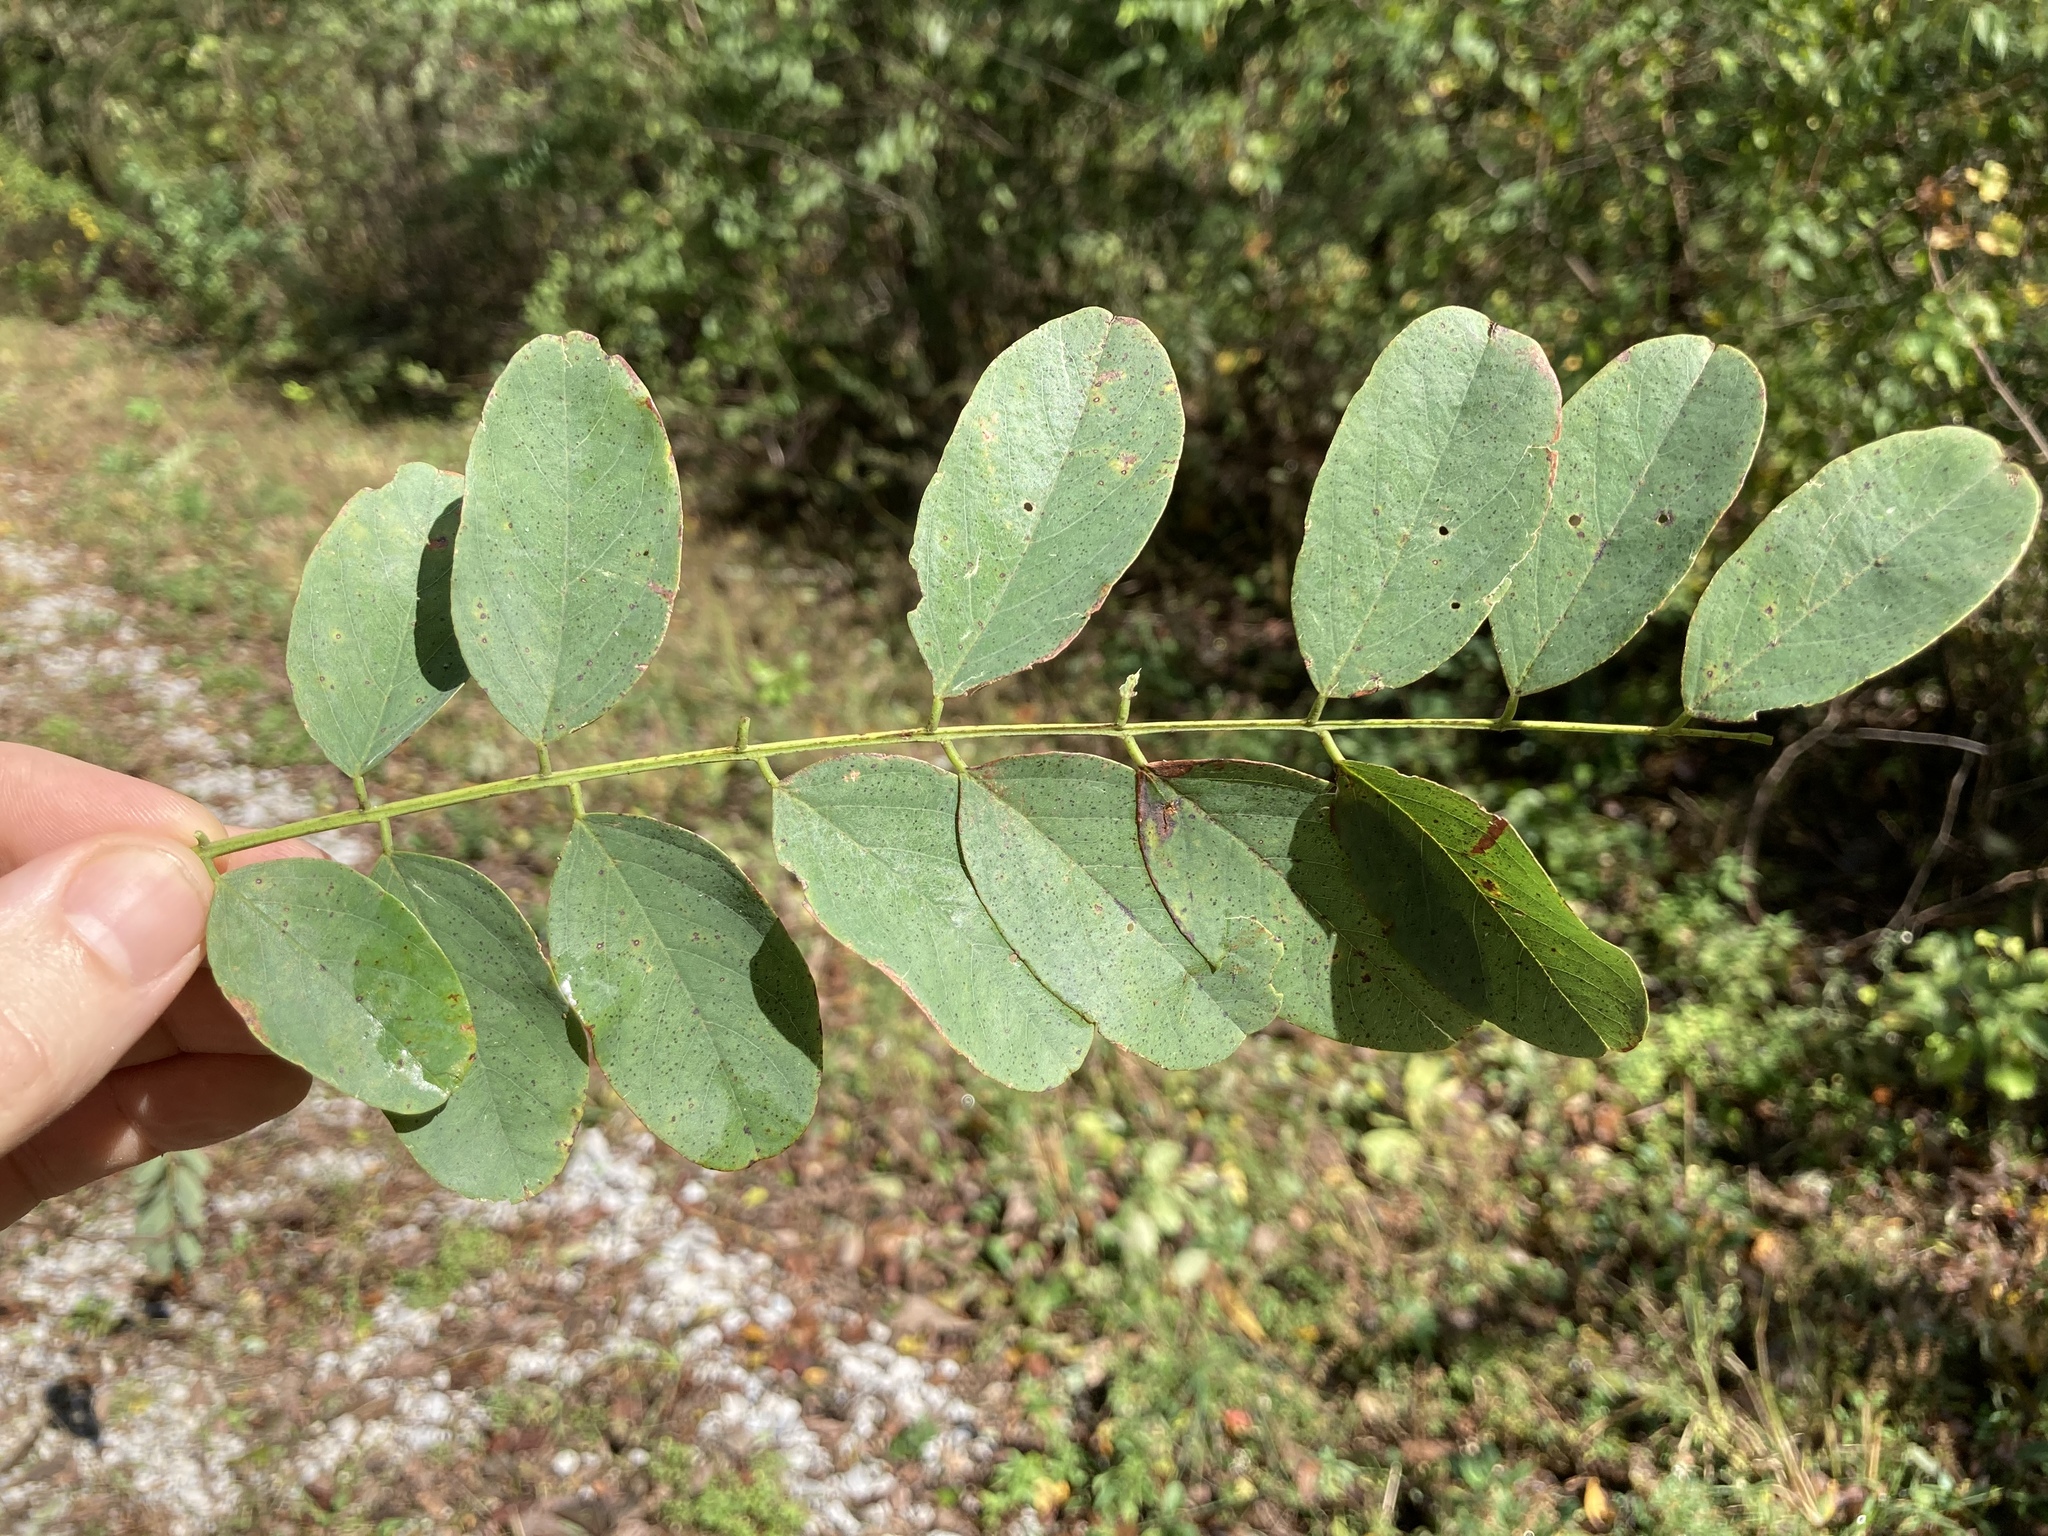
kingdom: Plantae
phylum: Tracheophyta
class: Magnoliopsida
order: Fabales
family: Fabaceae
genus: Robinia
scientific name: Robinia pseudoacacia
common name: Black locust
